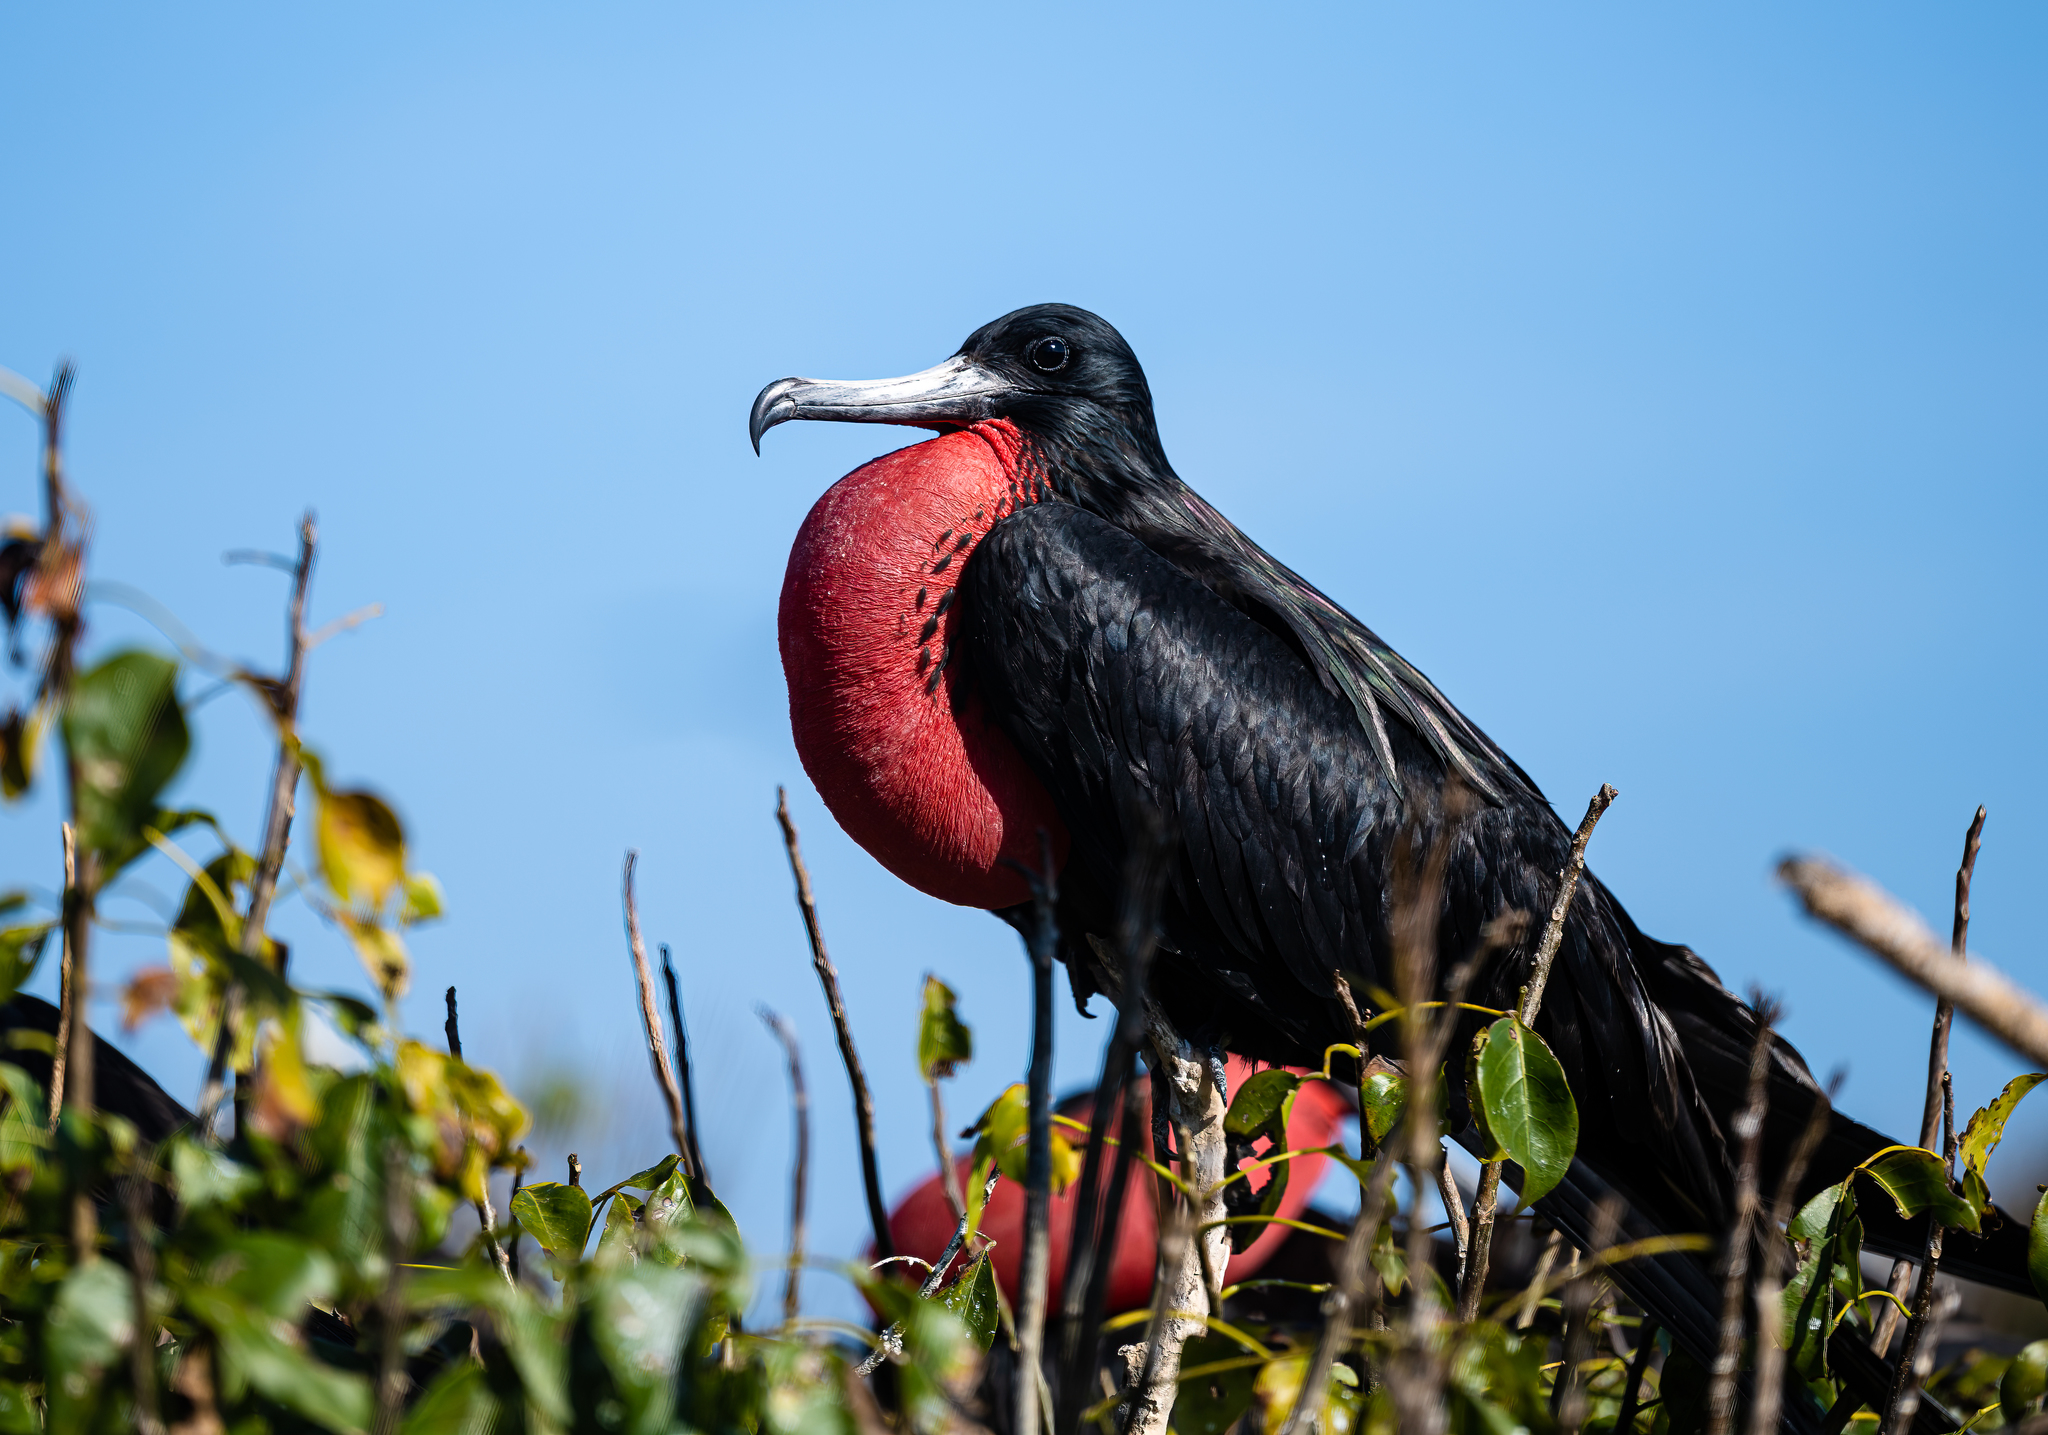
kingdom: Animalia
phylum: Chordata
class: Aves
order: Suliformes
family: Fregatidae
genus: Fregata
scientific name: Fregata magnificens
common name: Magnificent frigatebird
